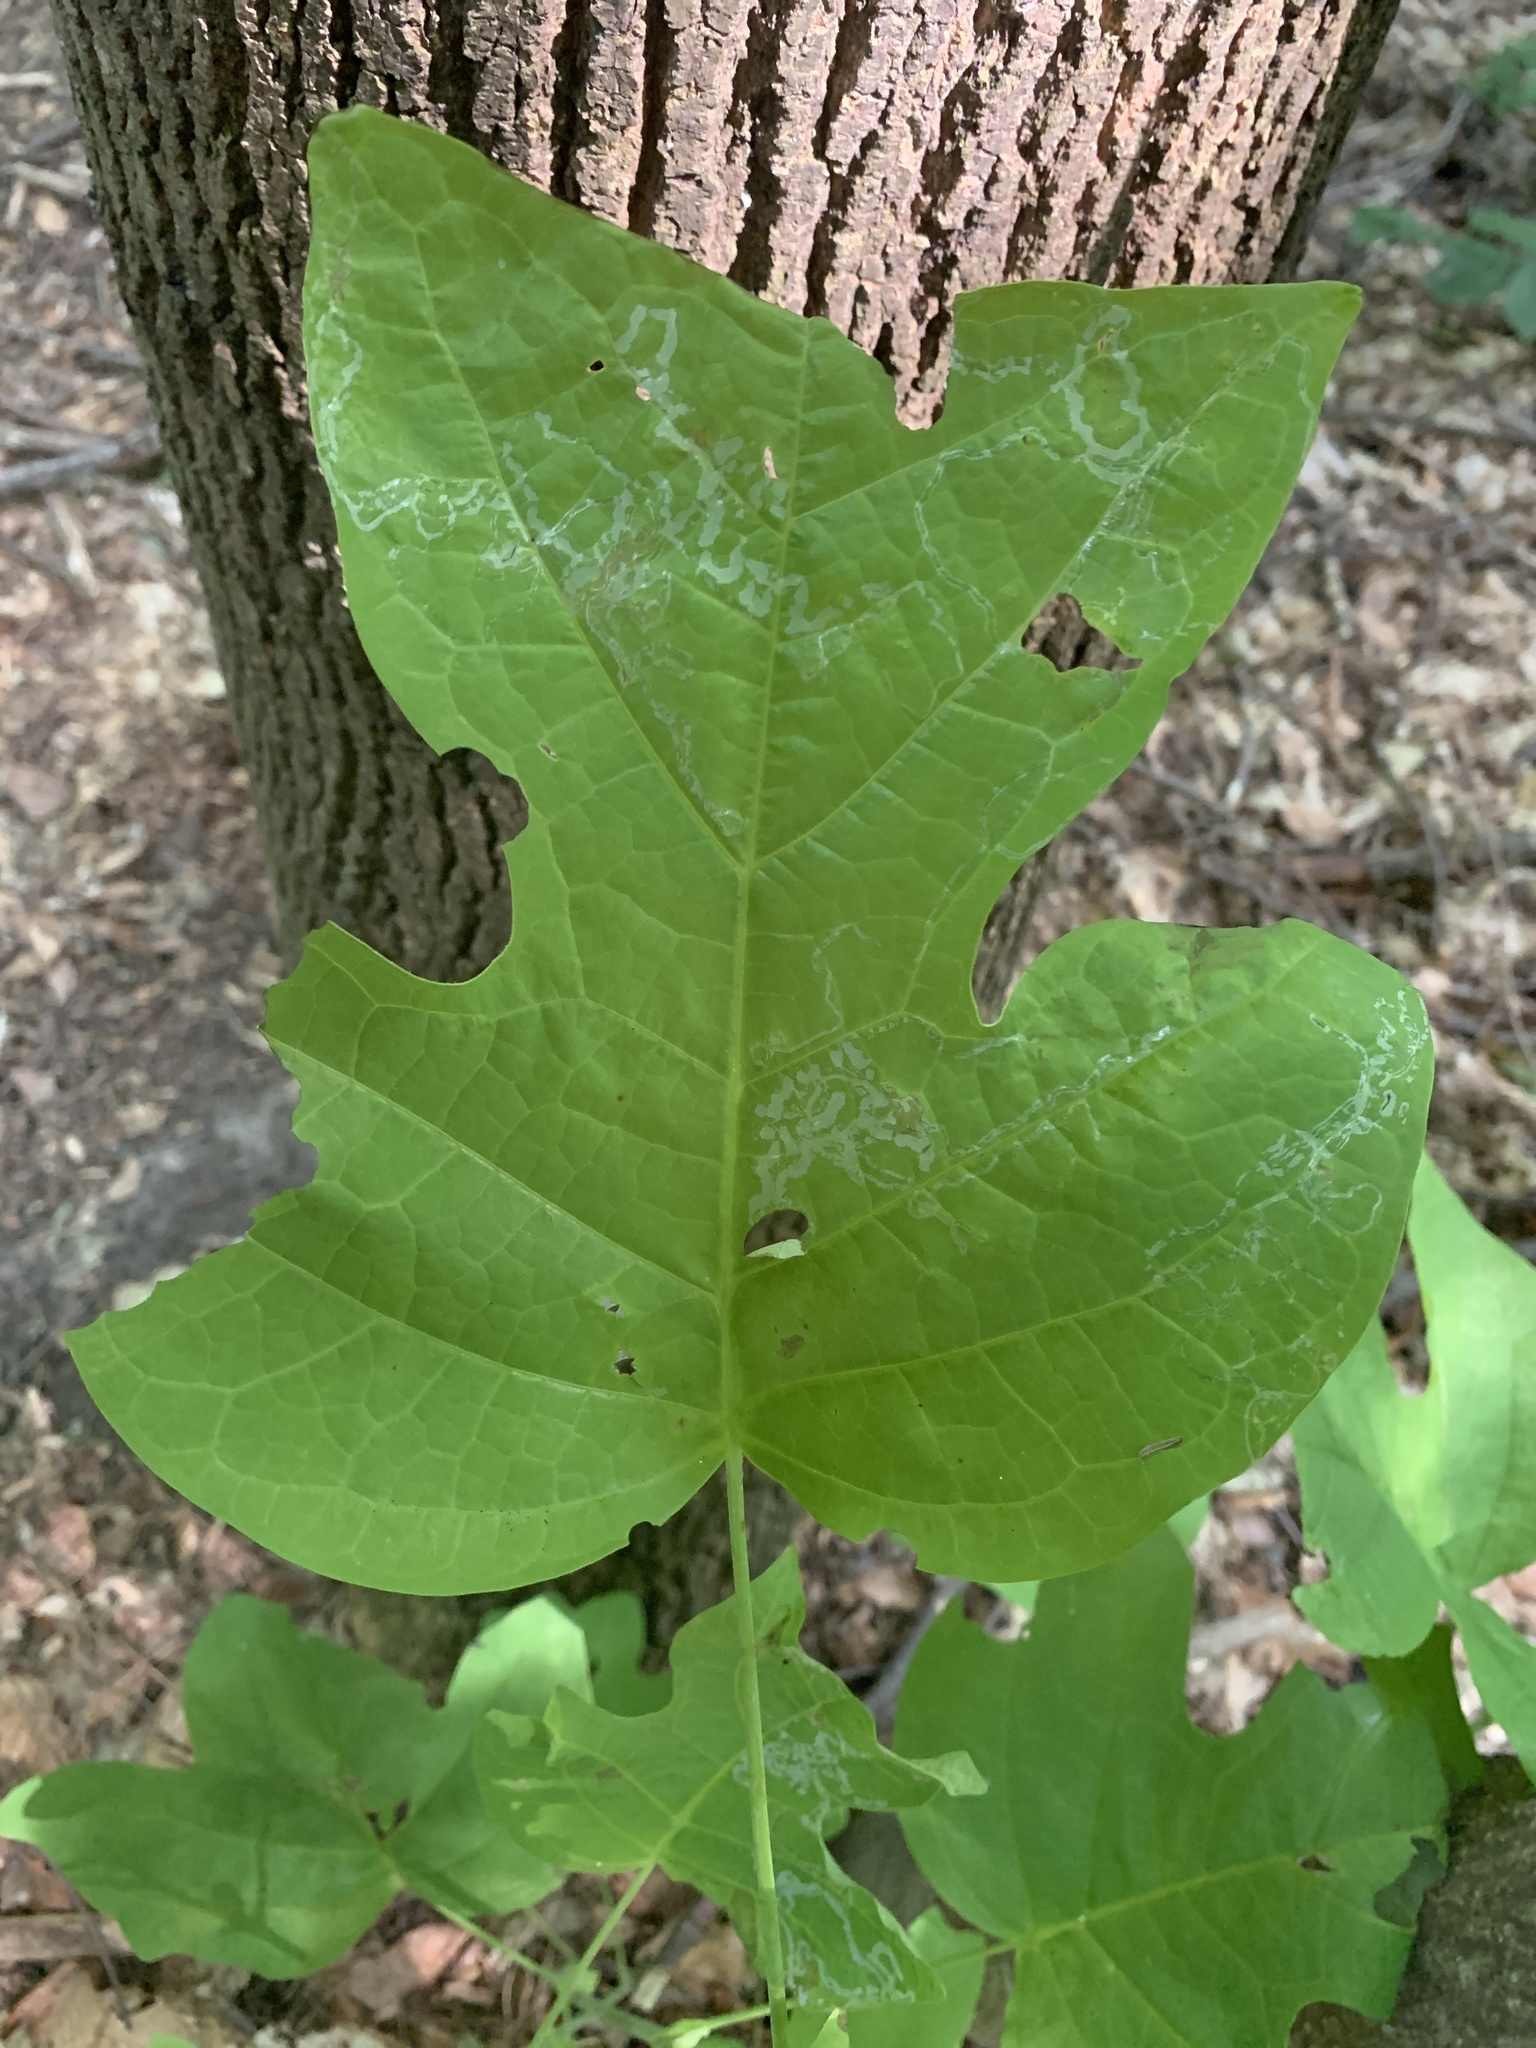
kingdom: Plantae
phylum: Tracheophyta
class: Magnoliopsida
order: Magnoliales
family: Magnoliaceae
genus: Liriodendron
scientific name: Liriodendron tulipifera
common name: Tulip tree
